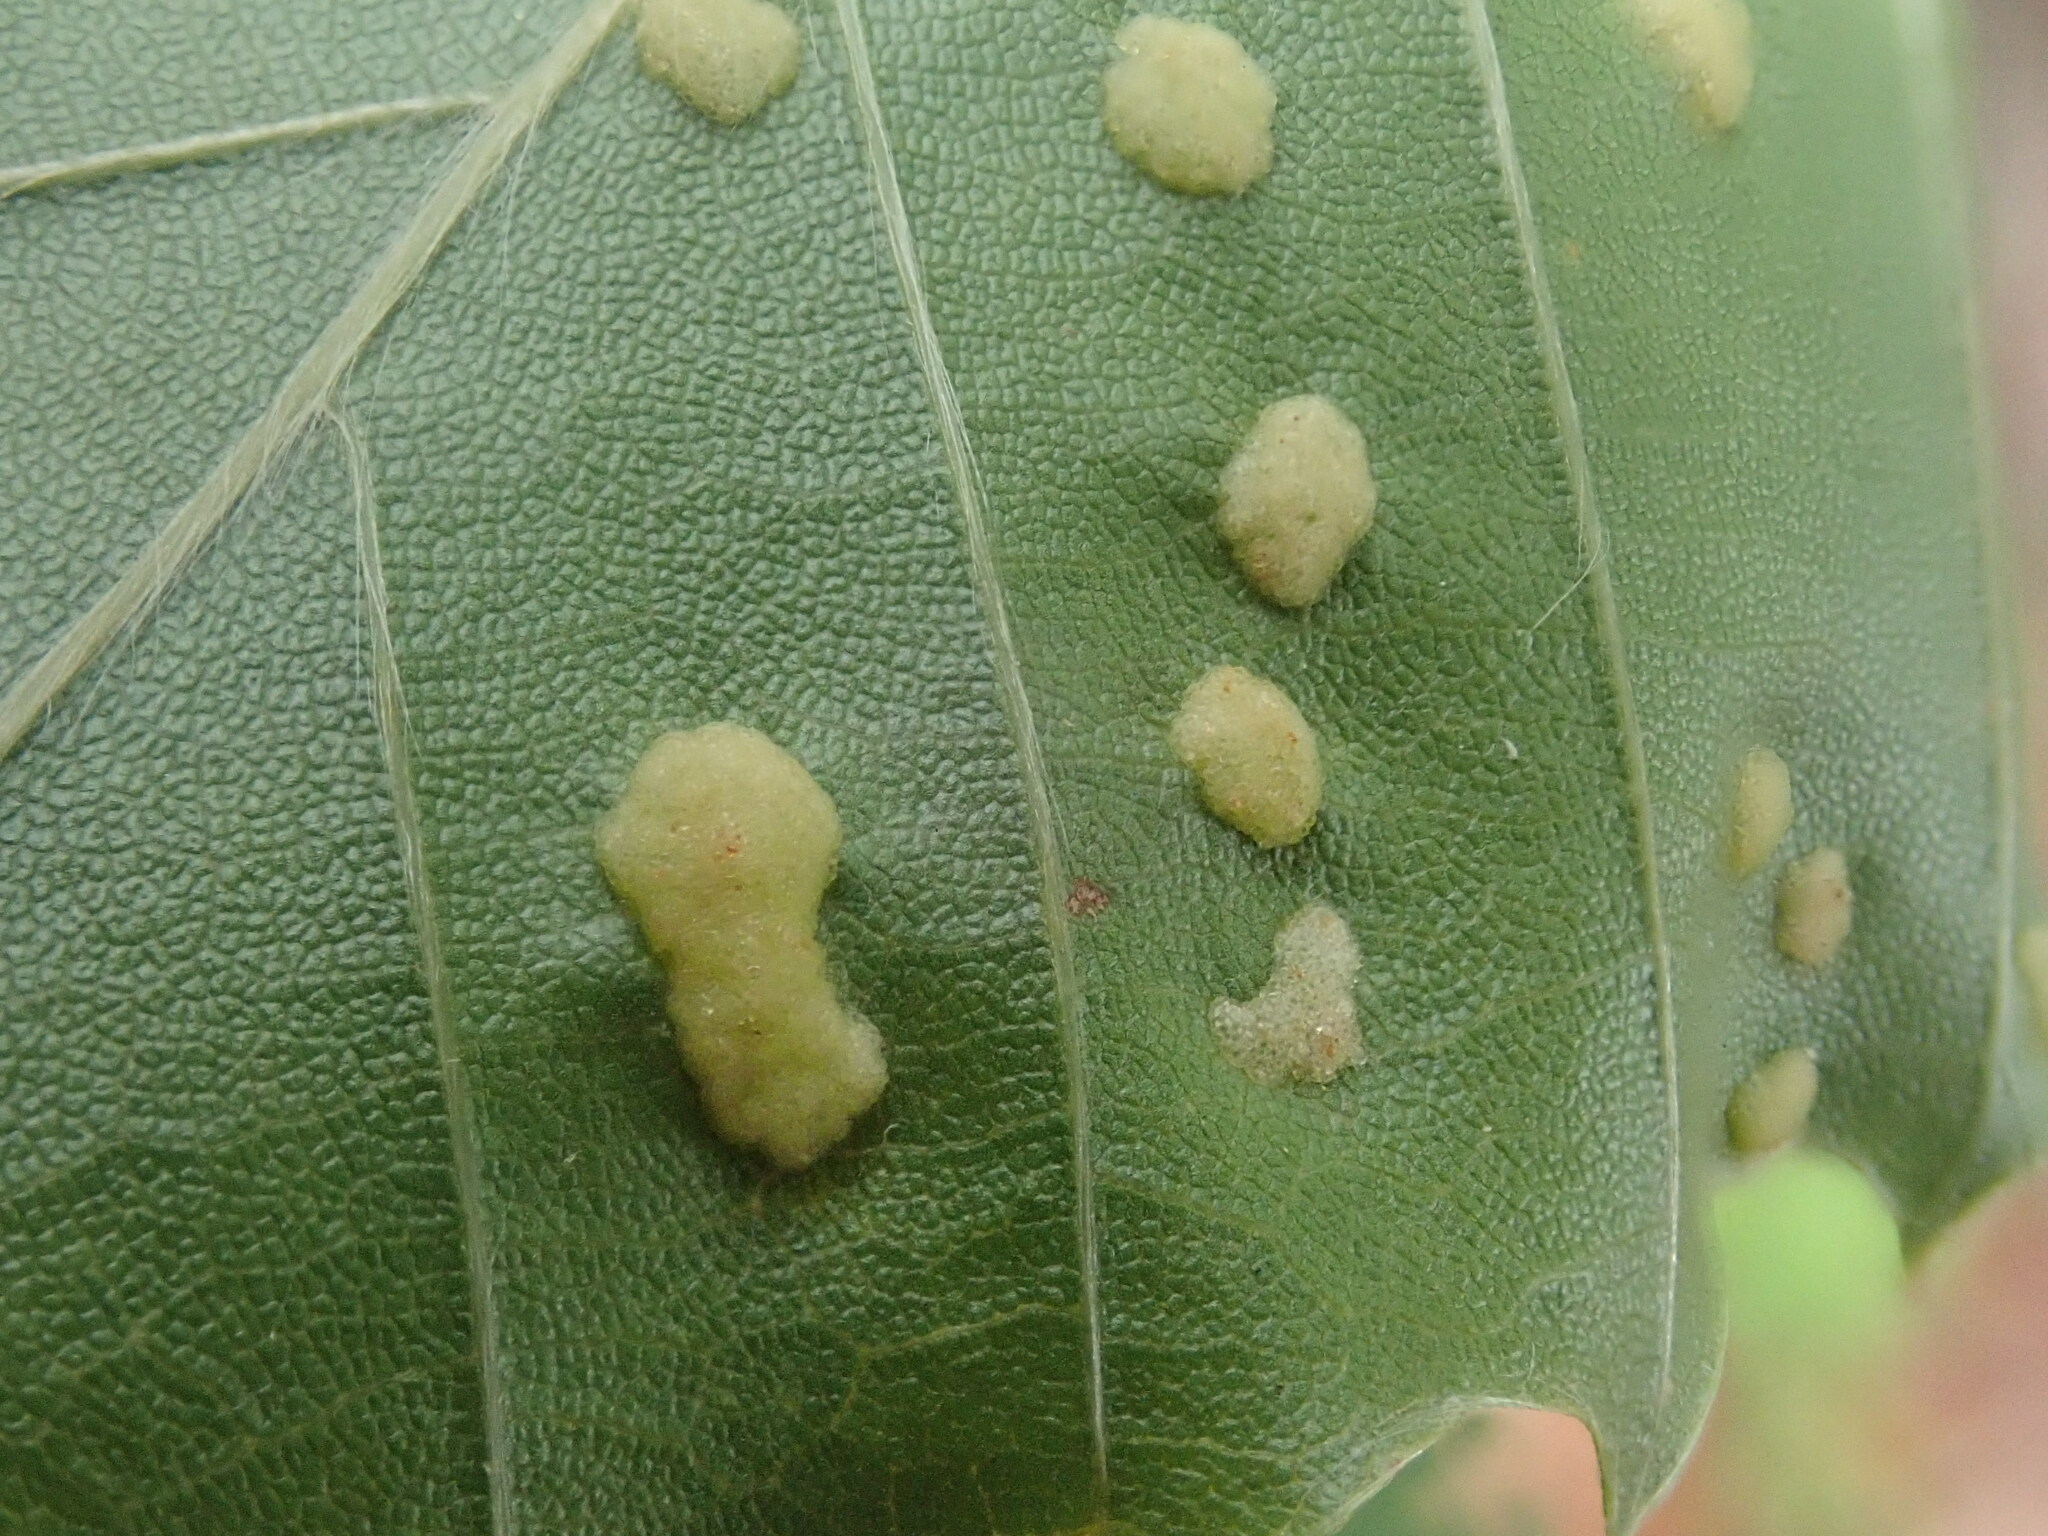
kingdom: Animalia
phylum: Arthropoda
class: Arachnida
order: Trombidiformes
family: Eriophyidae
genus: Acalitus
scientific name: Acalitus
